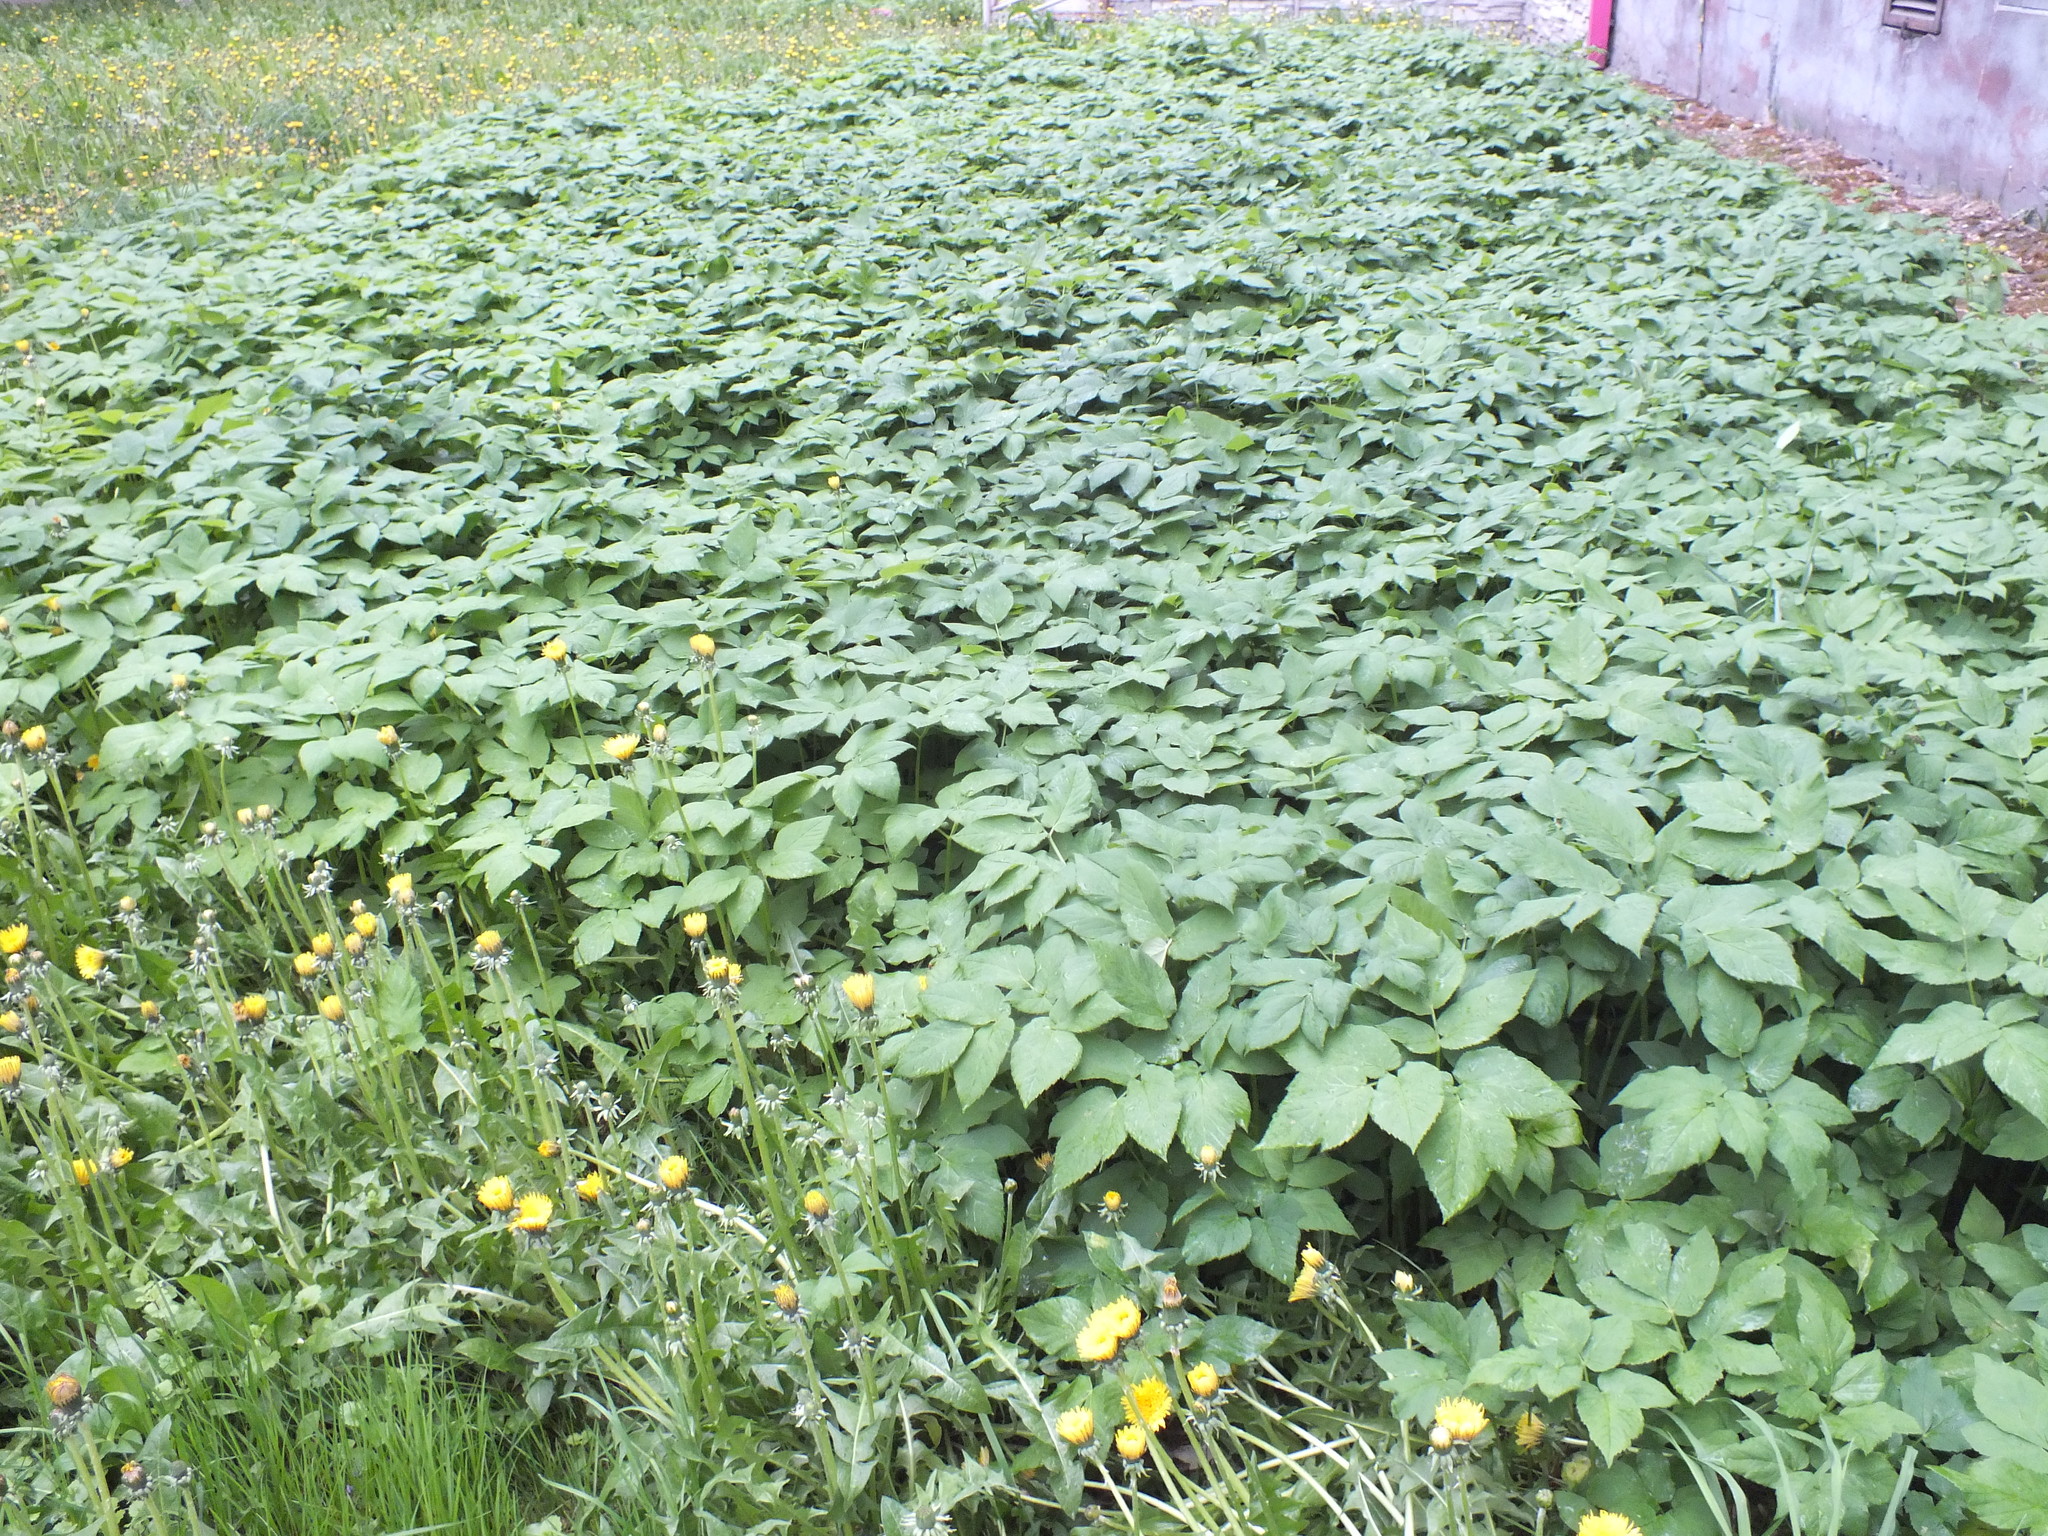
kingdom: Plantae
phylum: Tracheophyta
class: Magnoliopsida
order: Apiales
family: Apiaceae
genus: Aegopodium
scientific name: Aegopodium podagraria
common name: Ground-elder
